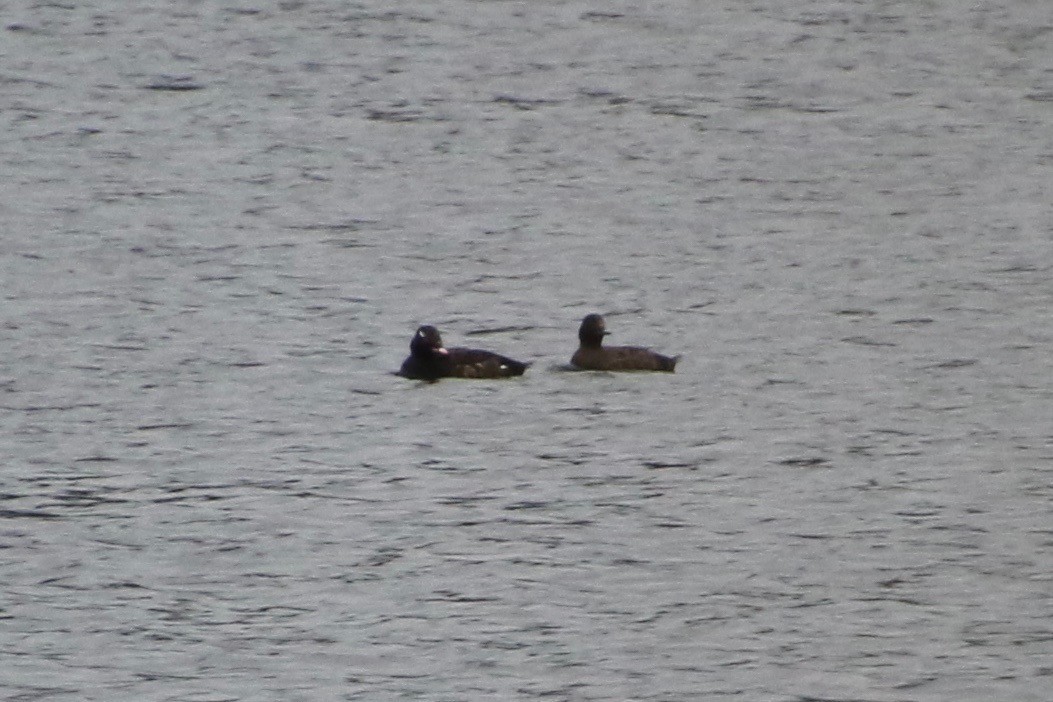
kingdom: Animalia
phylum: Chordata
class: Aves
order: Anseriformes
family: Anatidae
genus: Melanitta
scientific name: Melanitta deglandi
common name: White-winged scoter
